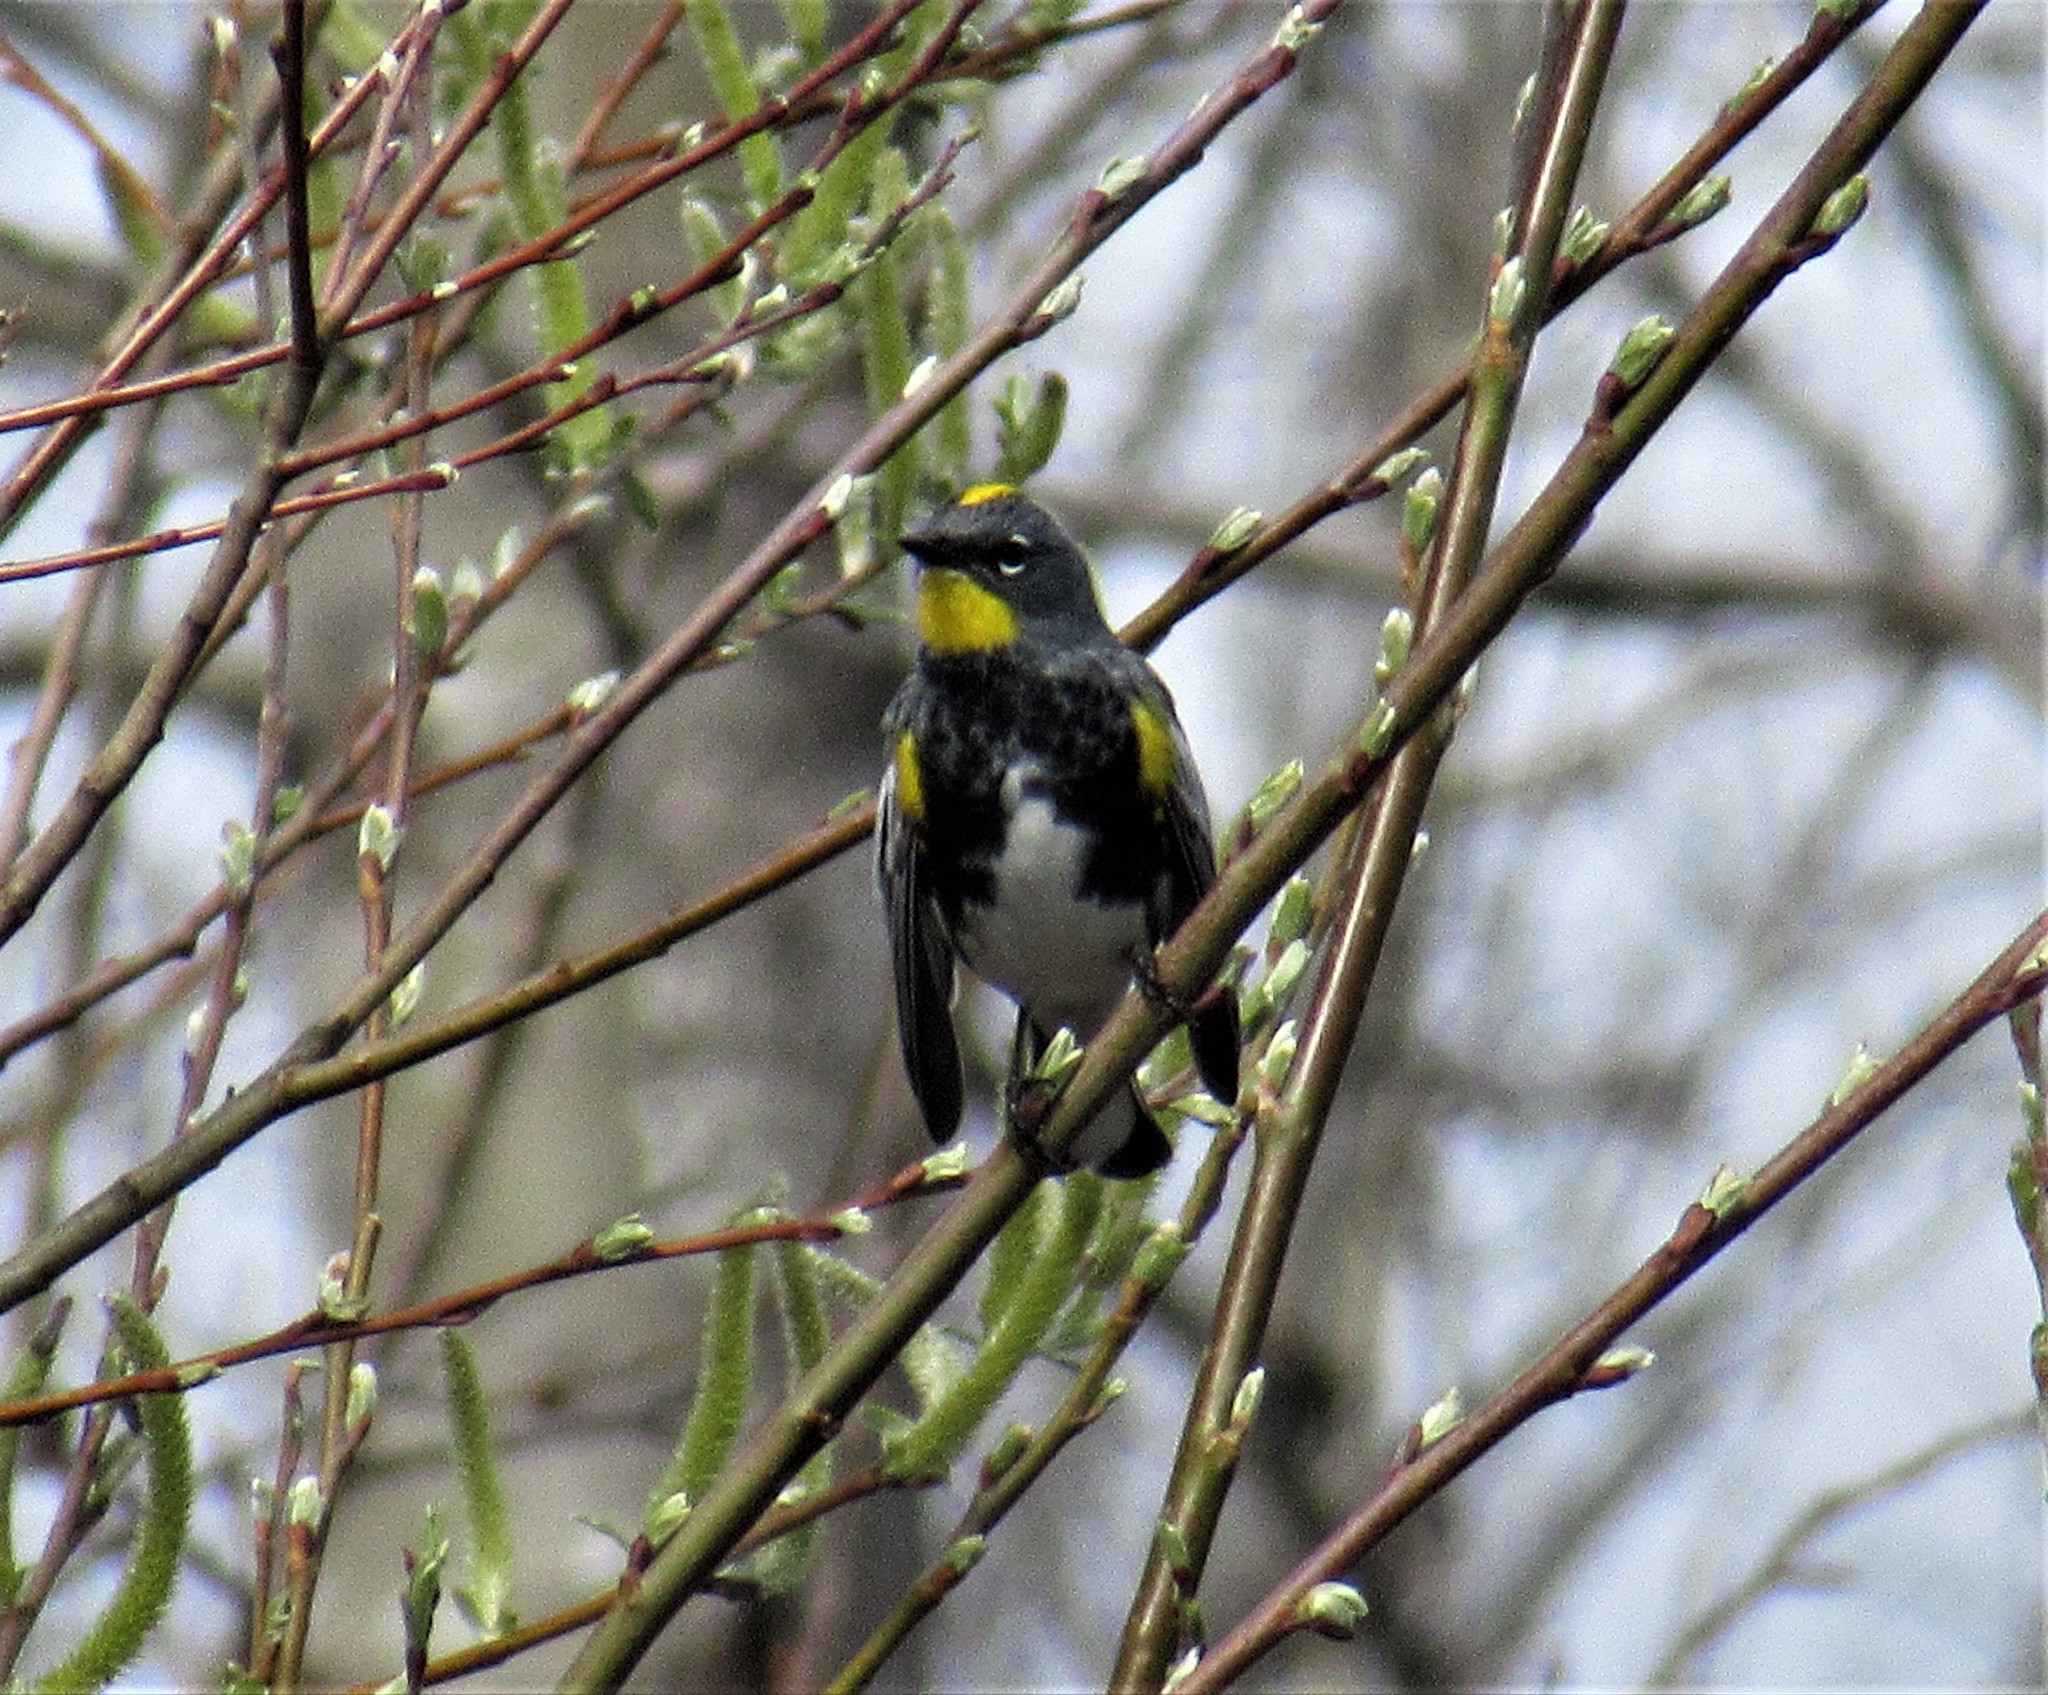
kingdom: Animalia
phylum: Chordata
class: Aves
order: Passeriformes
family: Parulidae
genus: Setophaga
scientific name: Setophaga auduboni
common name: Audubon's warbler
